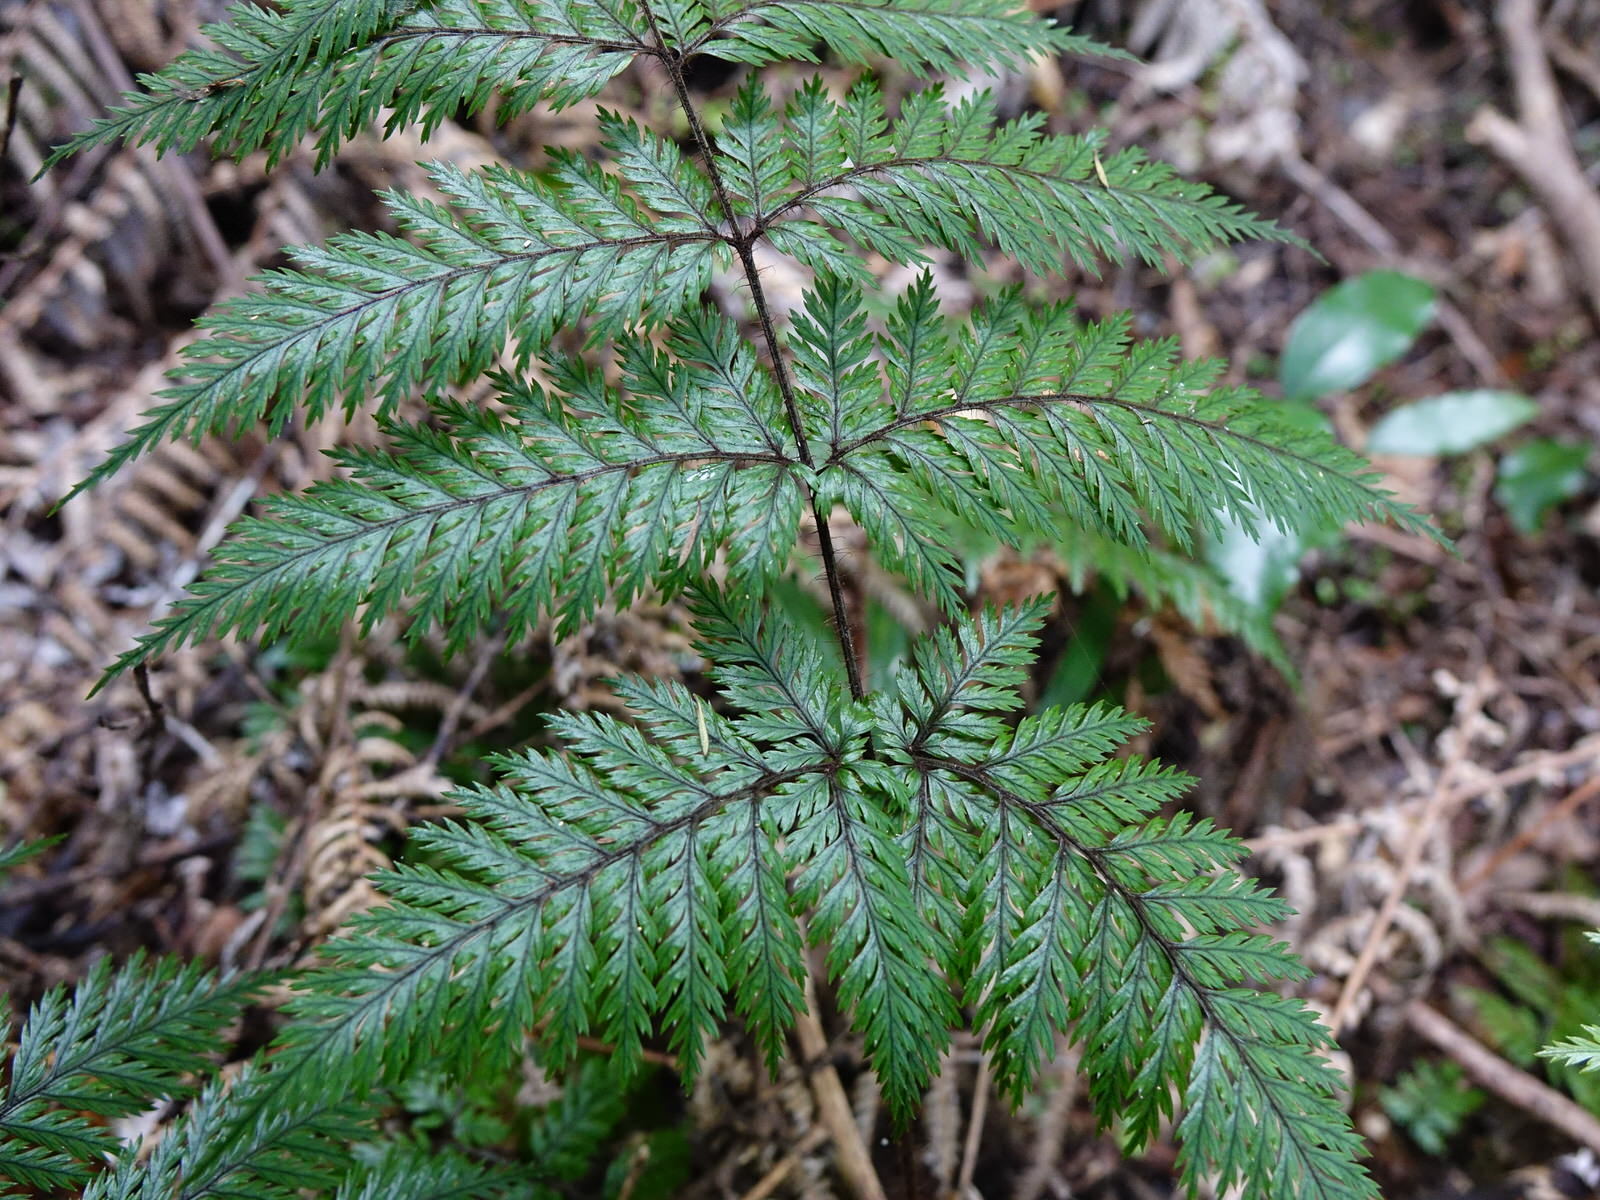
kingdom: Plantae
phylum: Tracheophyta
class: Polypodiopsida
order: Polypodiales
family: Dryopteridaceae
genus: Lastreopsis
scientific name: Lastreopsis hispida
